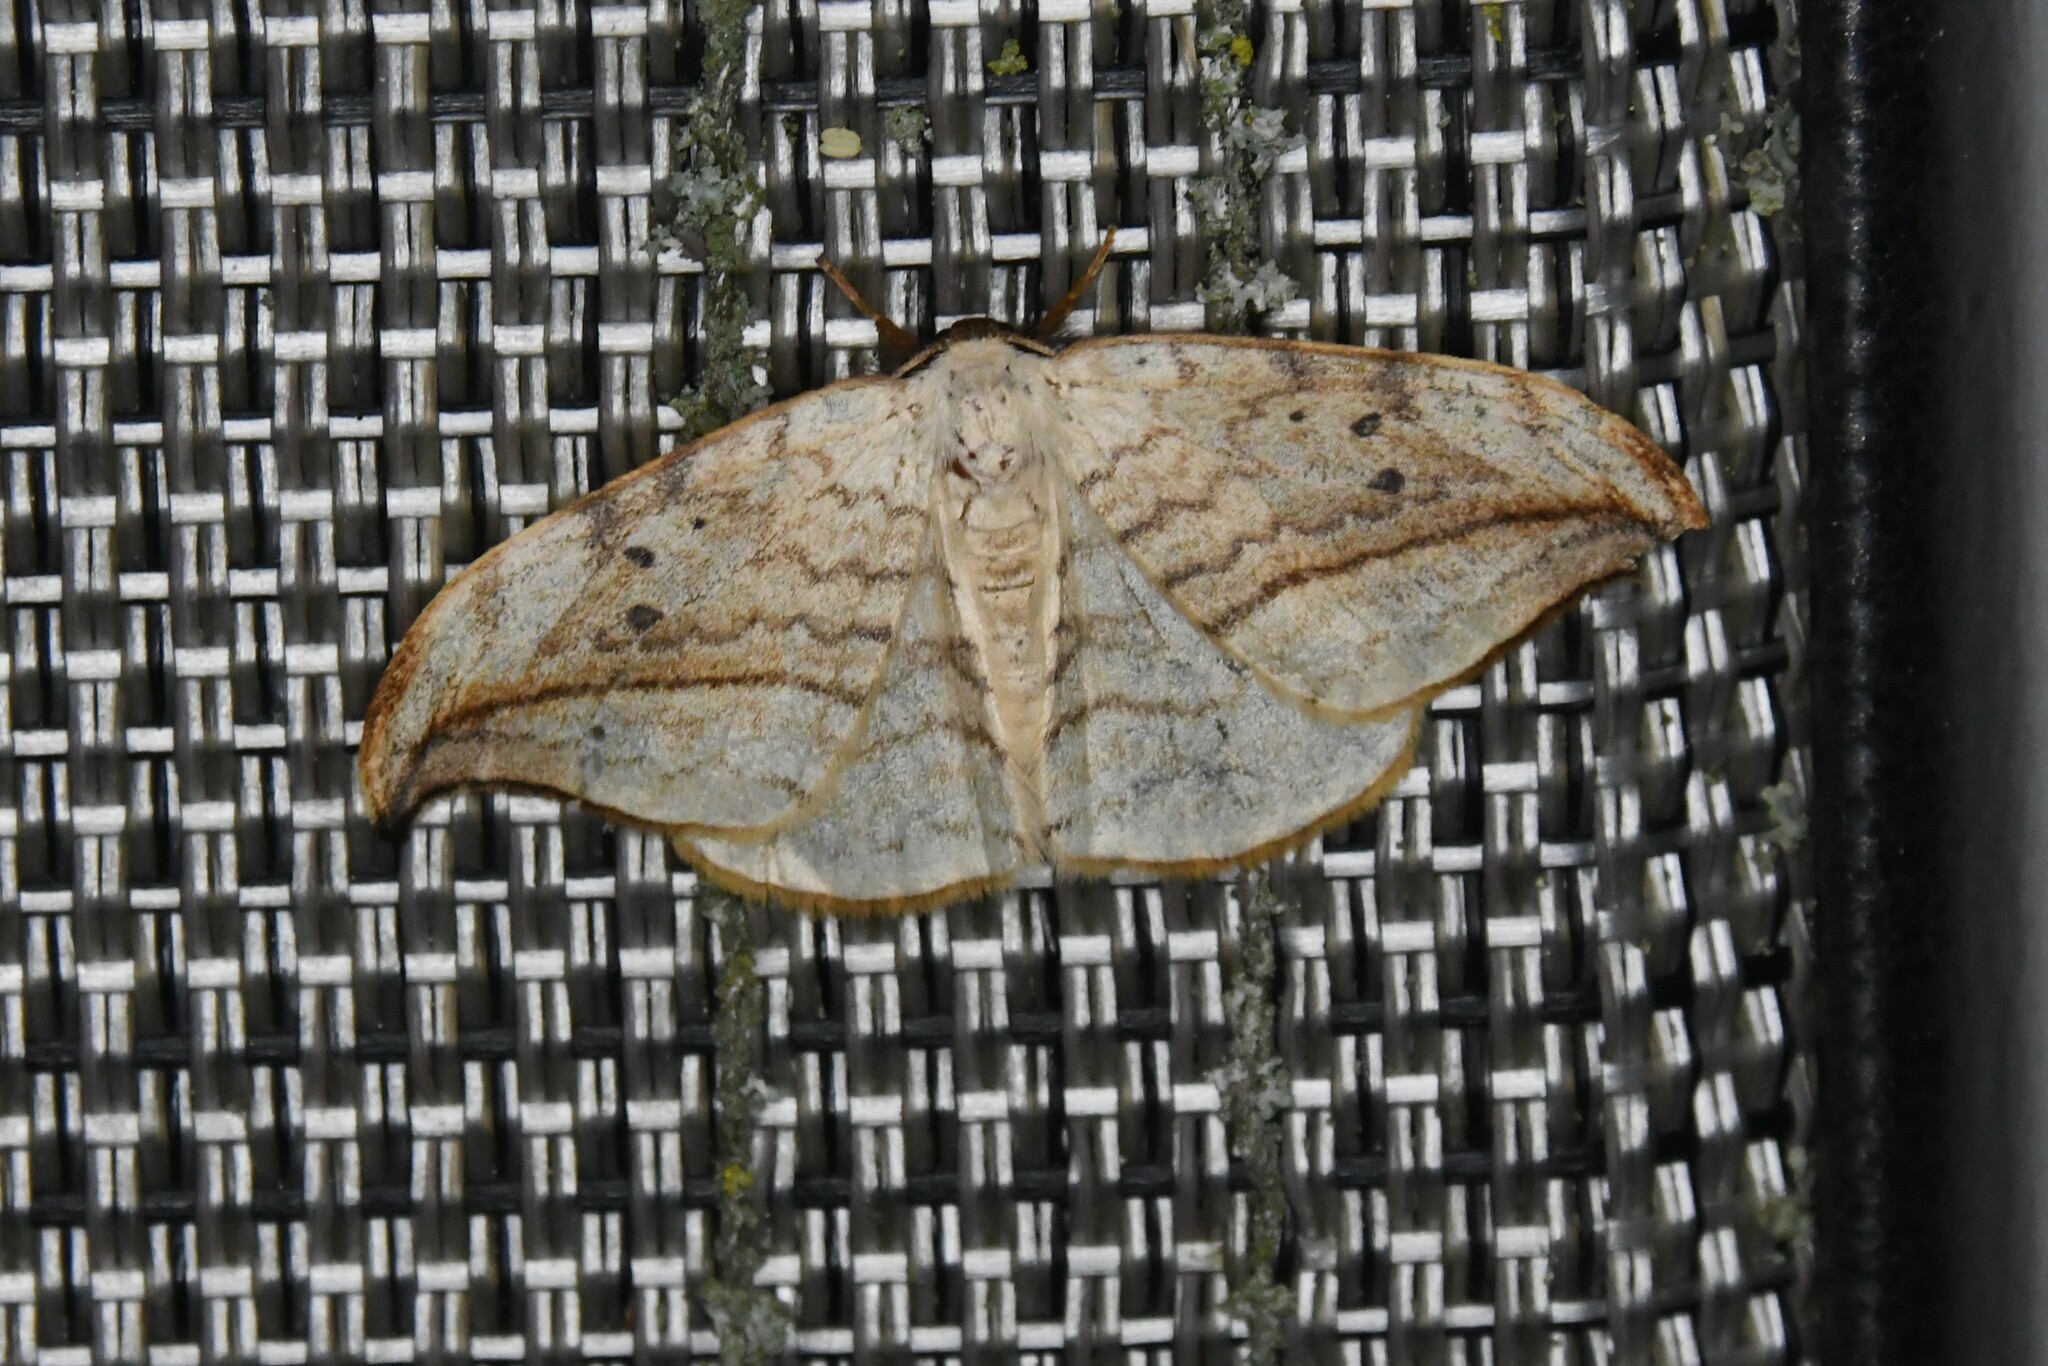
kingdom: Animalia
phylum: Arthropoda
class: Insecta
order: Lepidoptera
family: Drepanidae
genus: Drepana
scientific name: Drepana arcuata
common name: Arched hooktip moth
